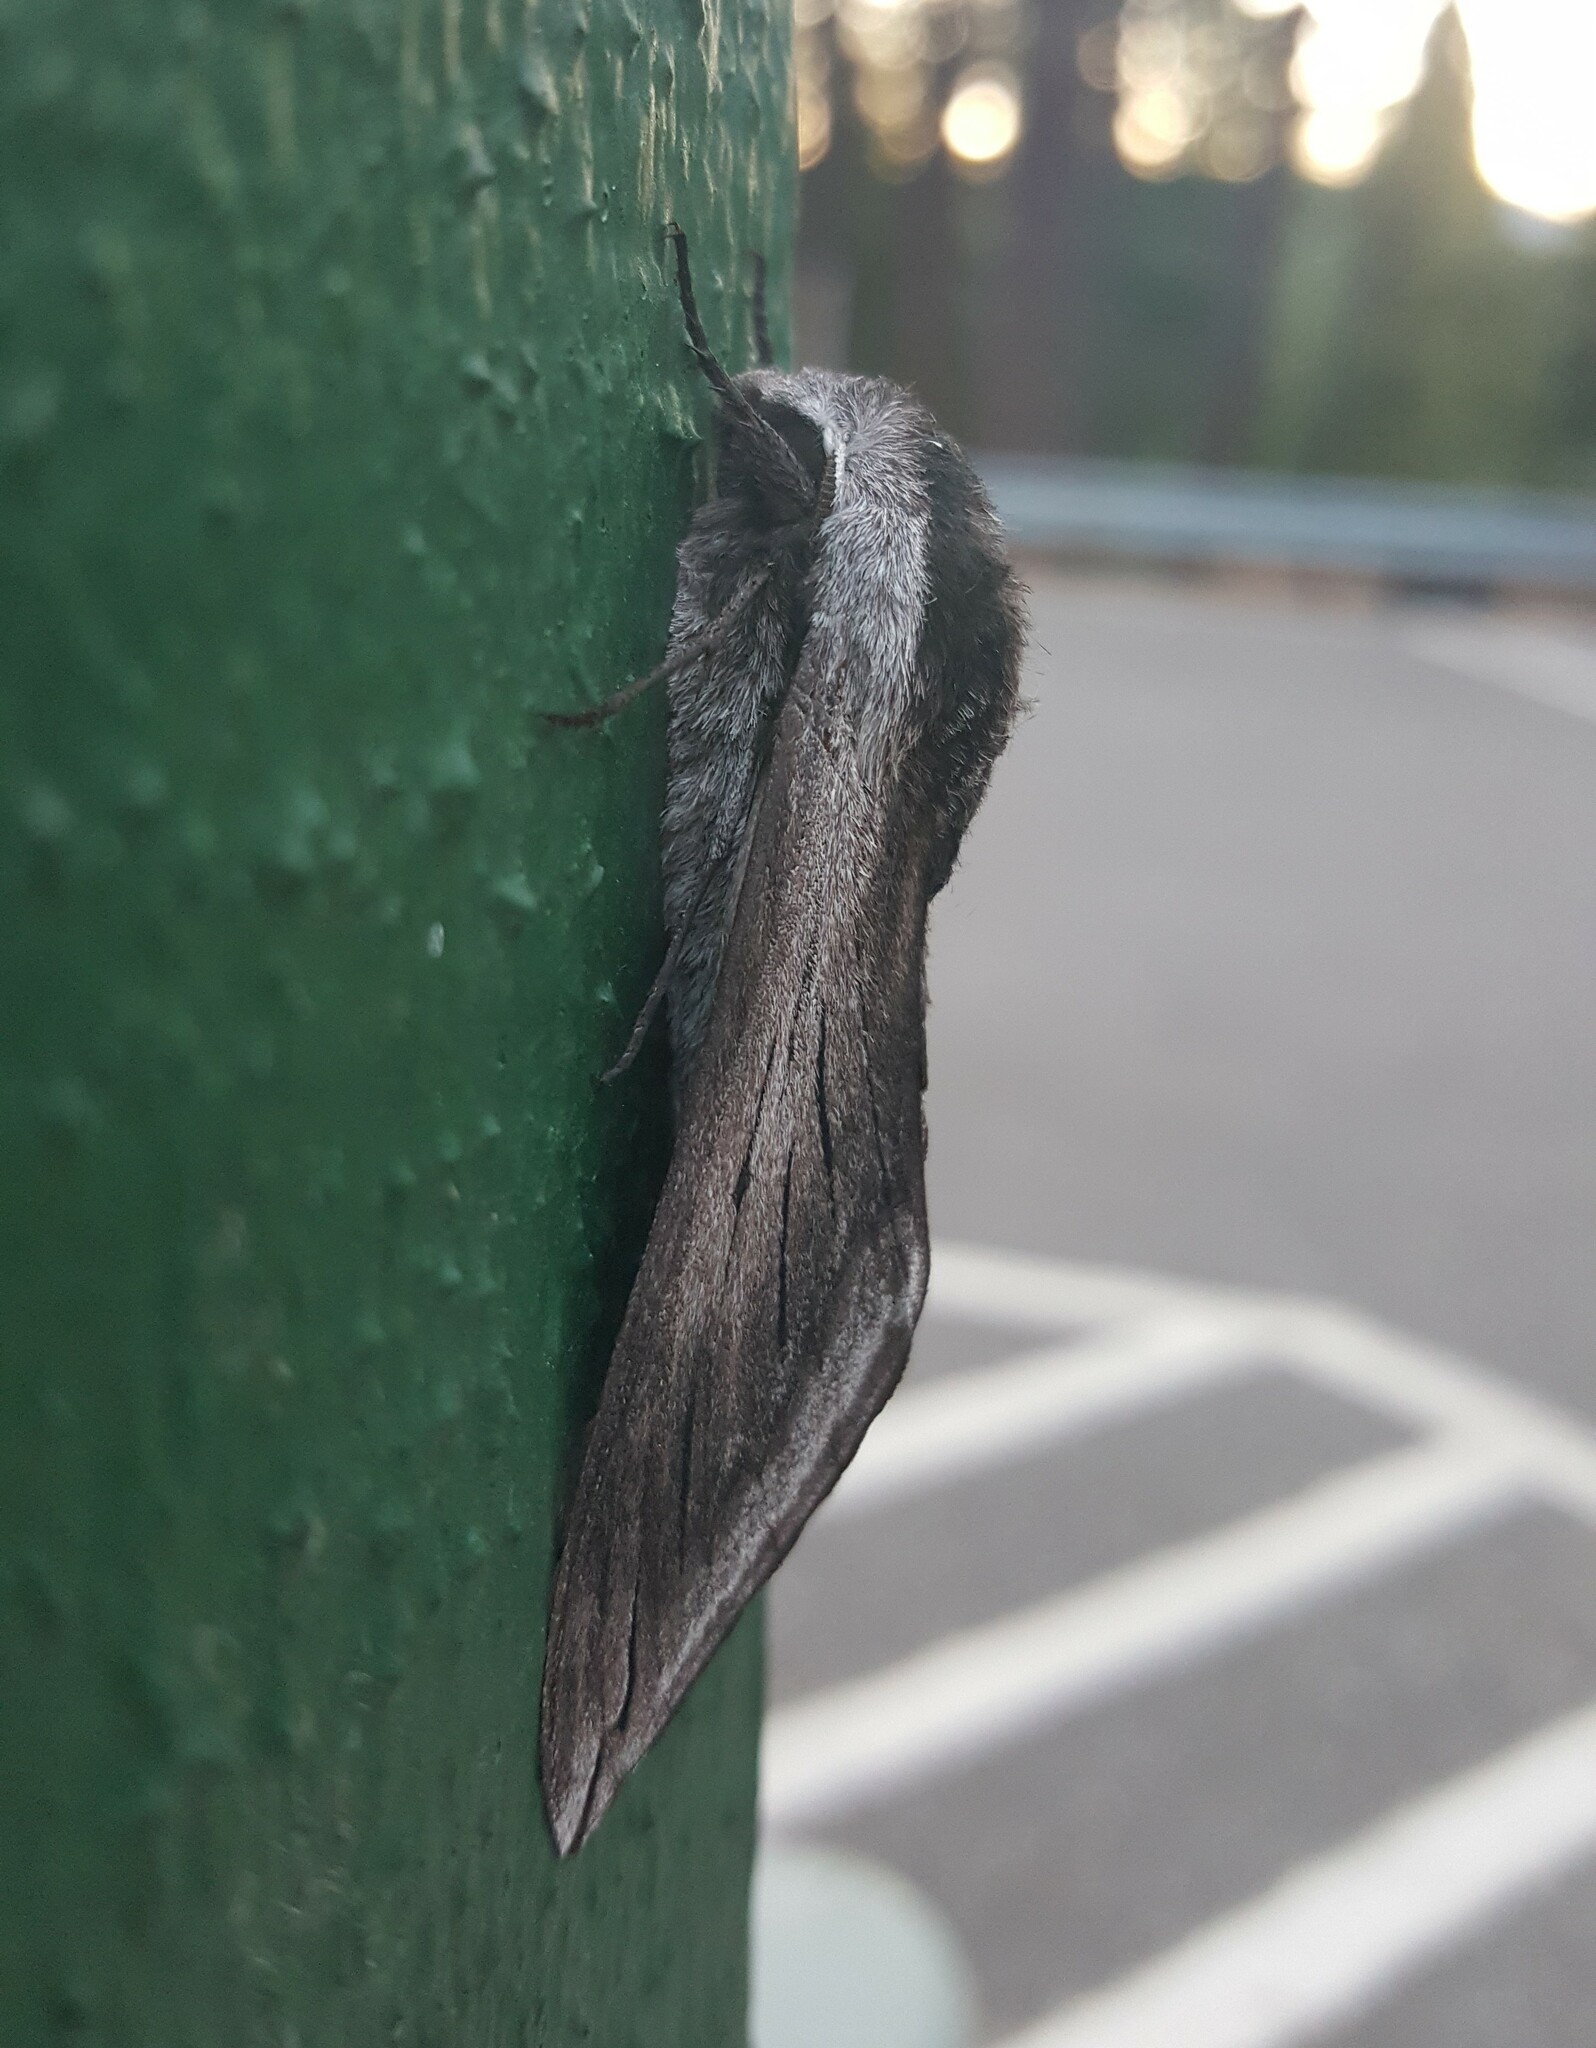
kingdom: Animalia
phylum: Arthropoda
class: Insecta
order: Lepidoptera
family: Sphingidae
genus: Sphinx
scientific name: Sphinx perelegans
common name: Elegant sphinx
